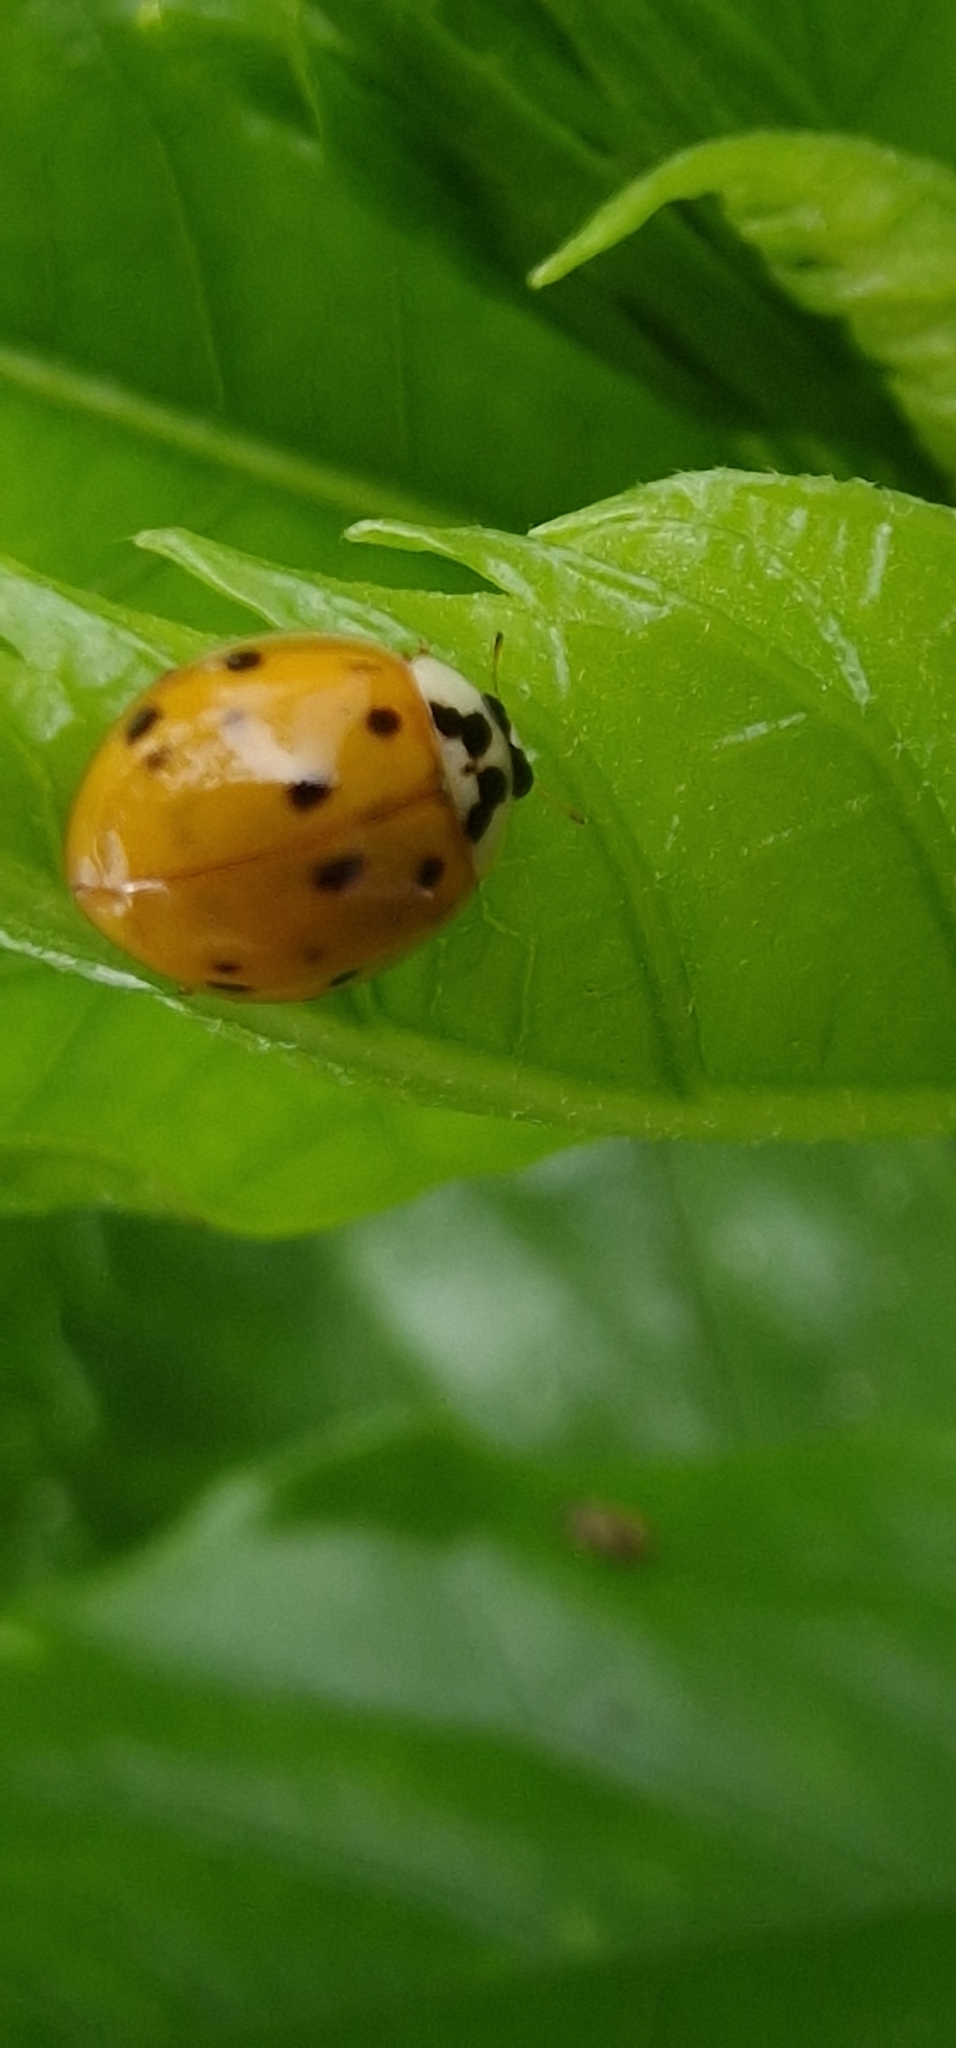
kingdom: Animalia
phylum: Arthropoda
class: Insecta
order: Coleoptera
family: Coccinellidae
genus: Harmonia
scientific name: Harmonia axyridis
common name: Harlequin ladybird
